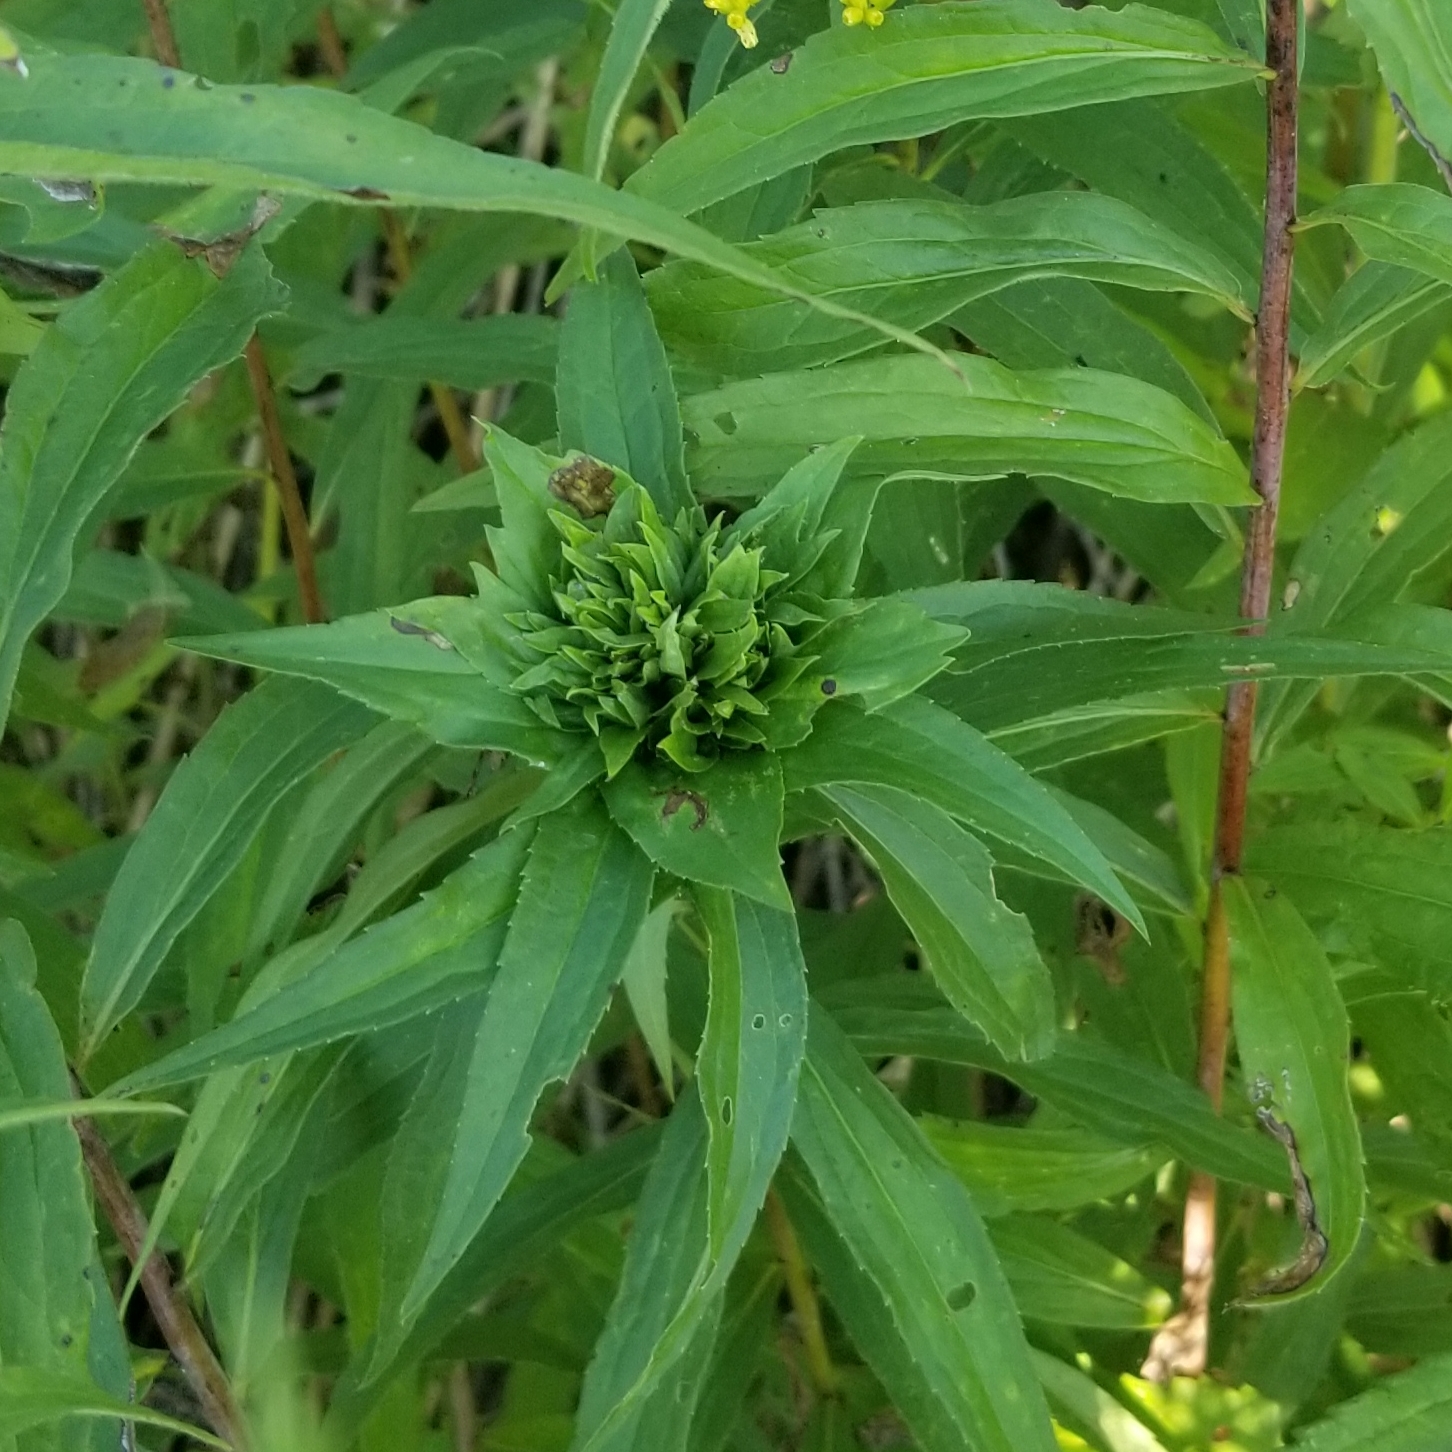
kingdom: Animalia
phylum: Arthropoda
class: Insecta
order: Diptera
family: Cecidomyiidae
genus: Rhopalomyia
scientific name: Rhopalomyia capitata
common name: Giant goldenrod bunch gall midge
